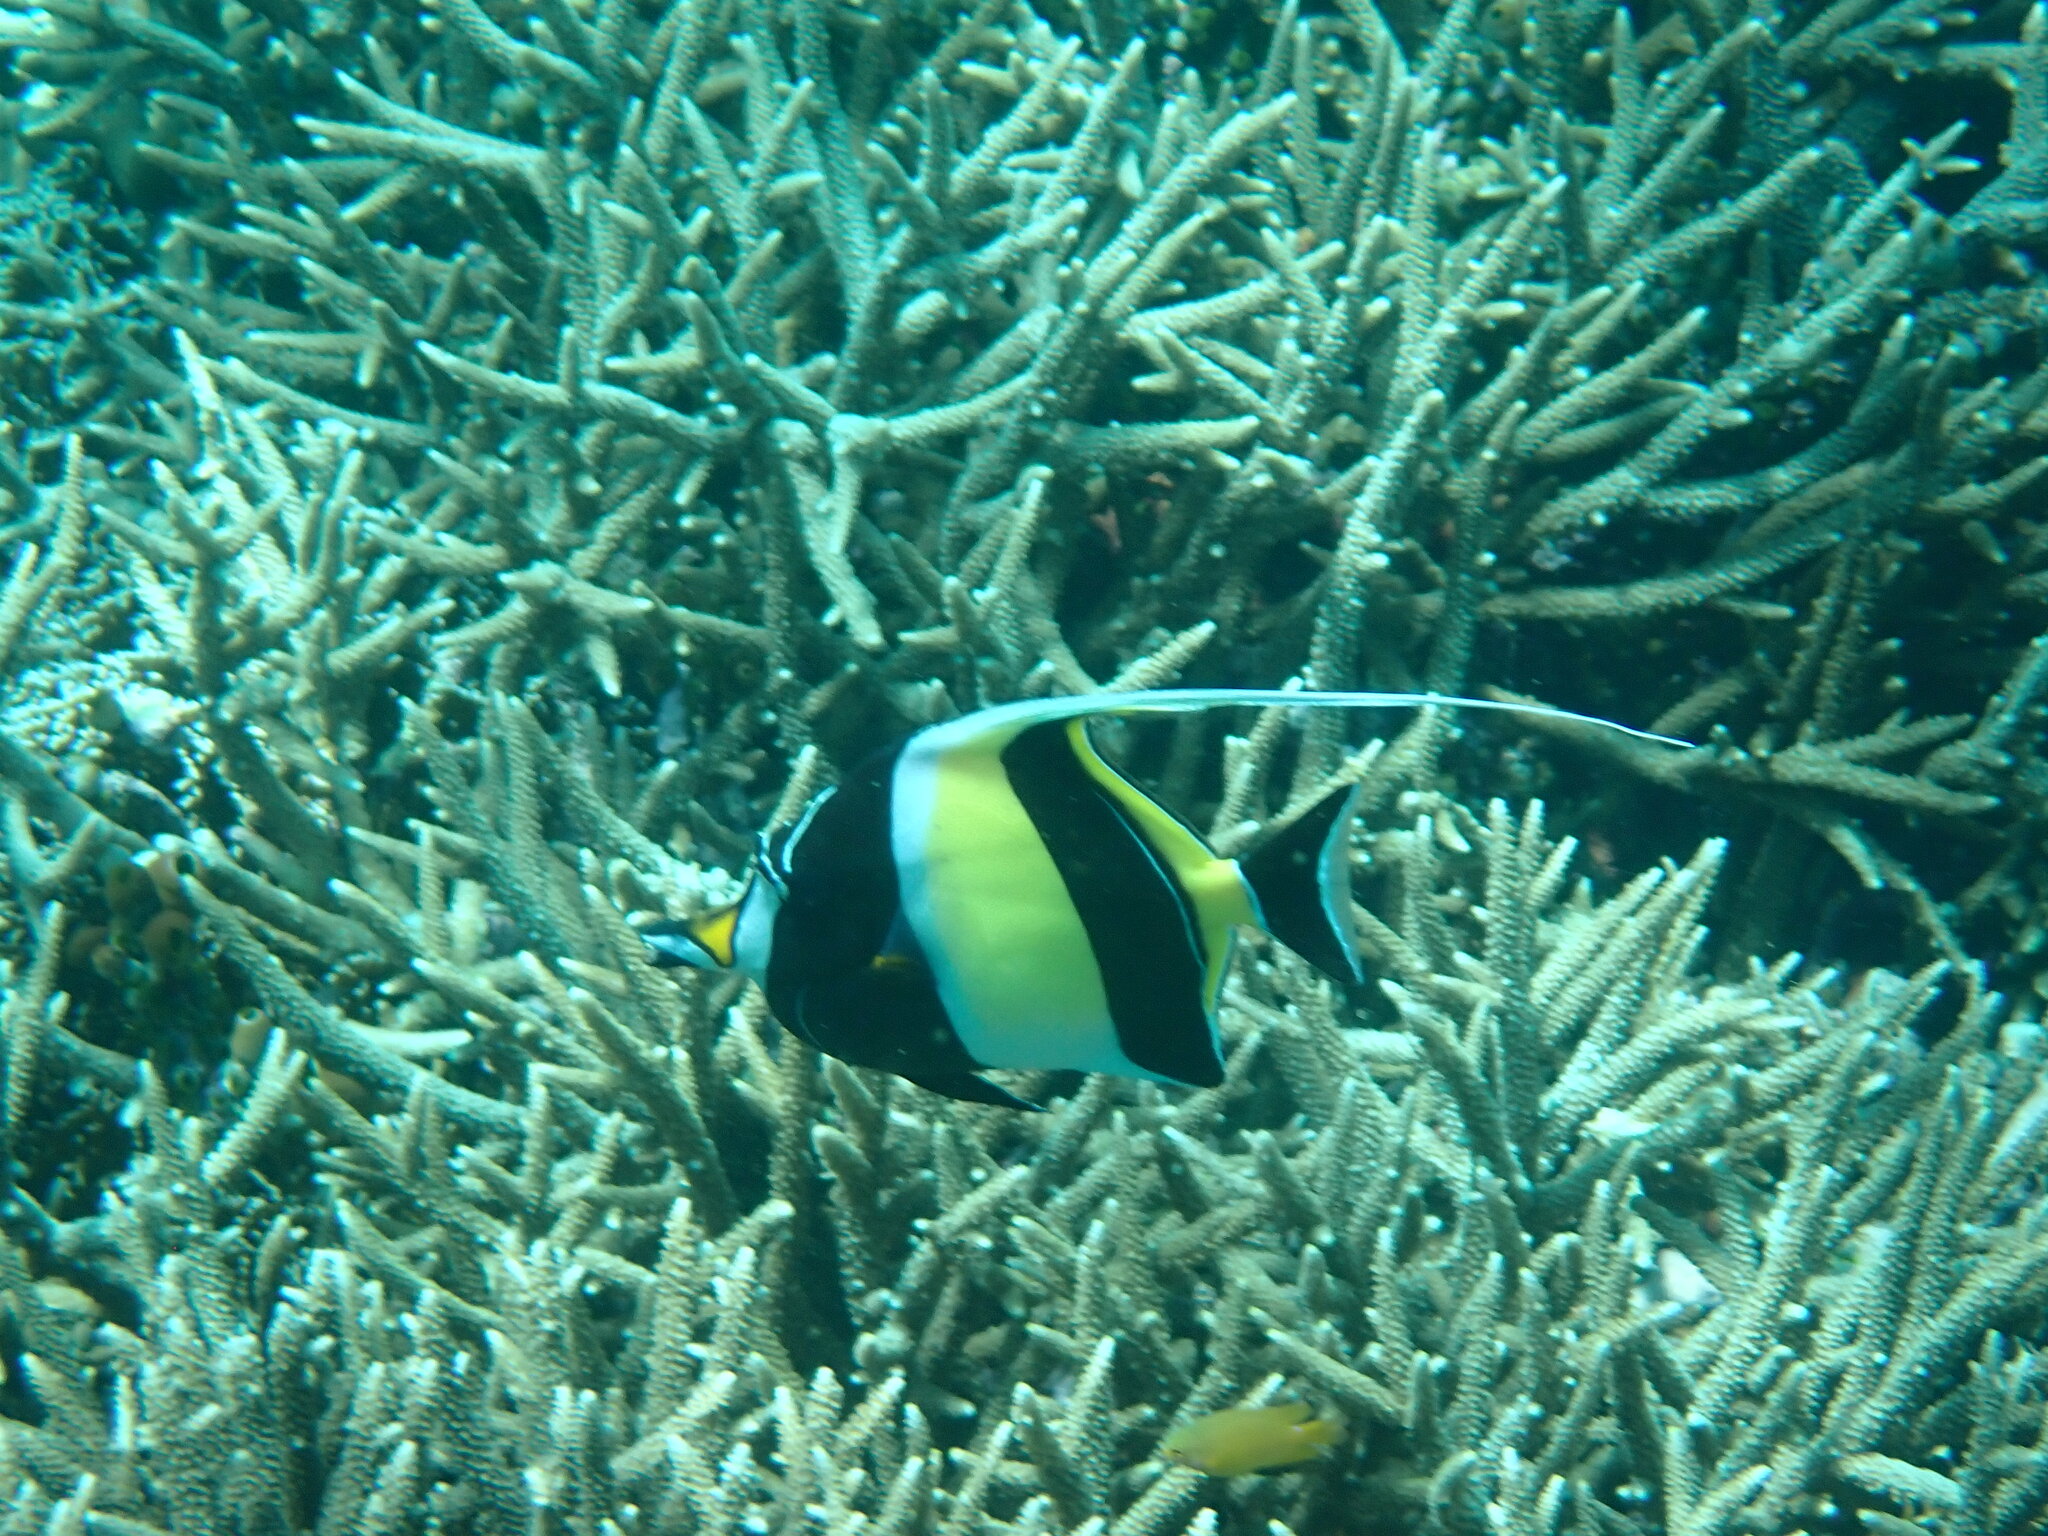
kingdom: Animalia
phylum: Chordata
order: Perciformes
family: Zanclidae
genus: Zanclus
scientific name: Zanclus cornutus
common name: Moorish idol
